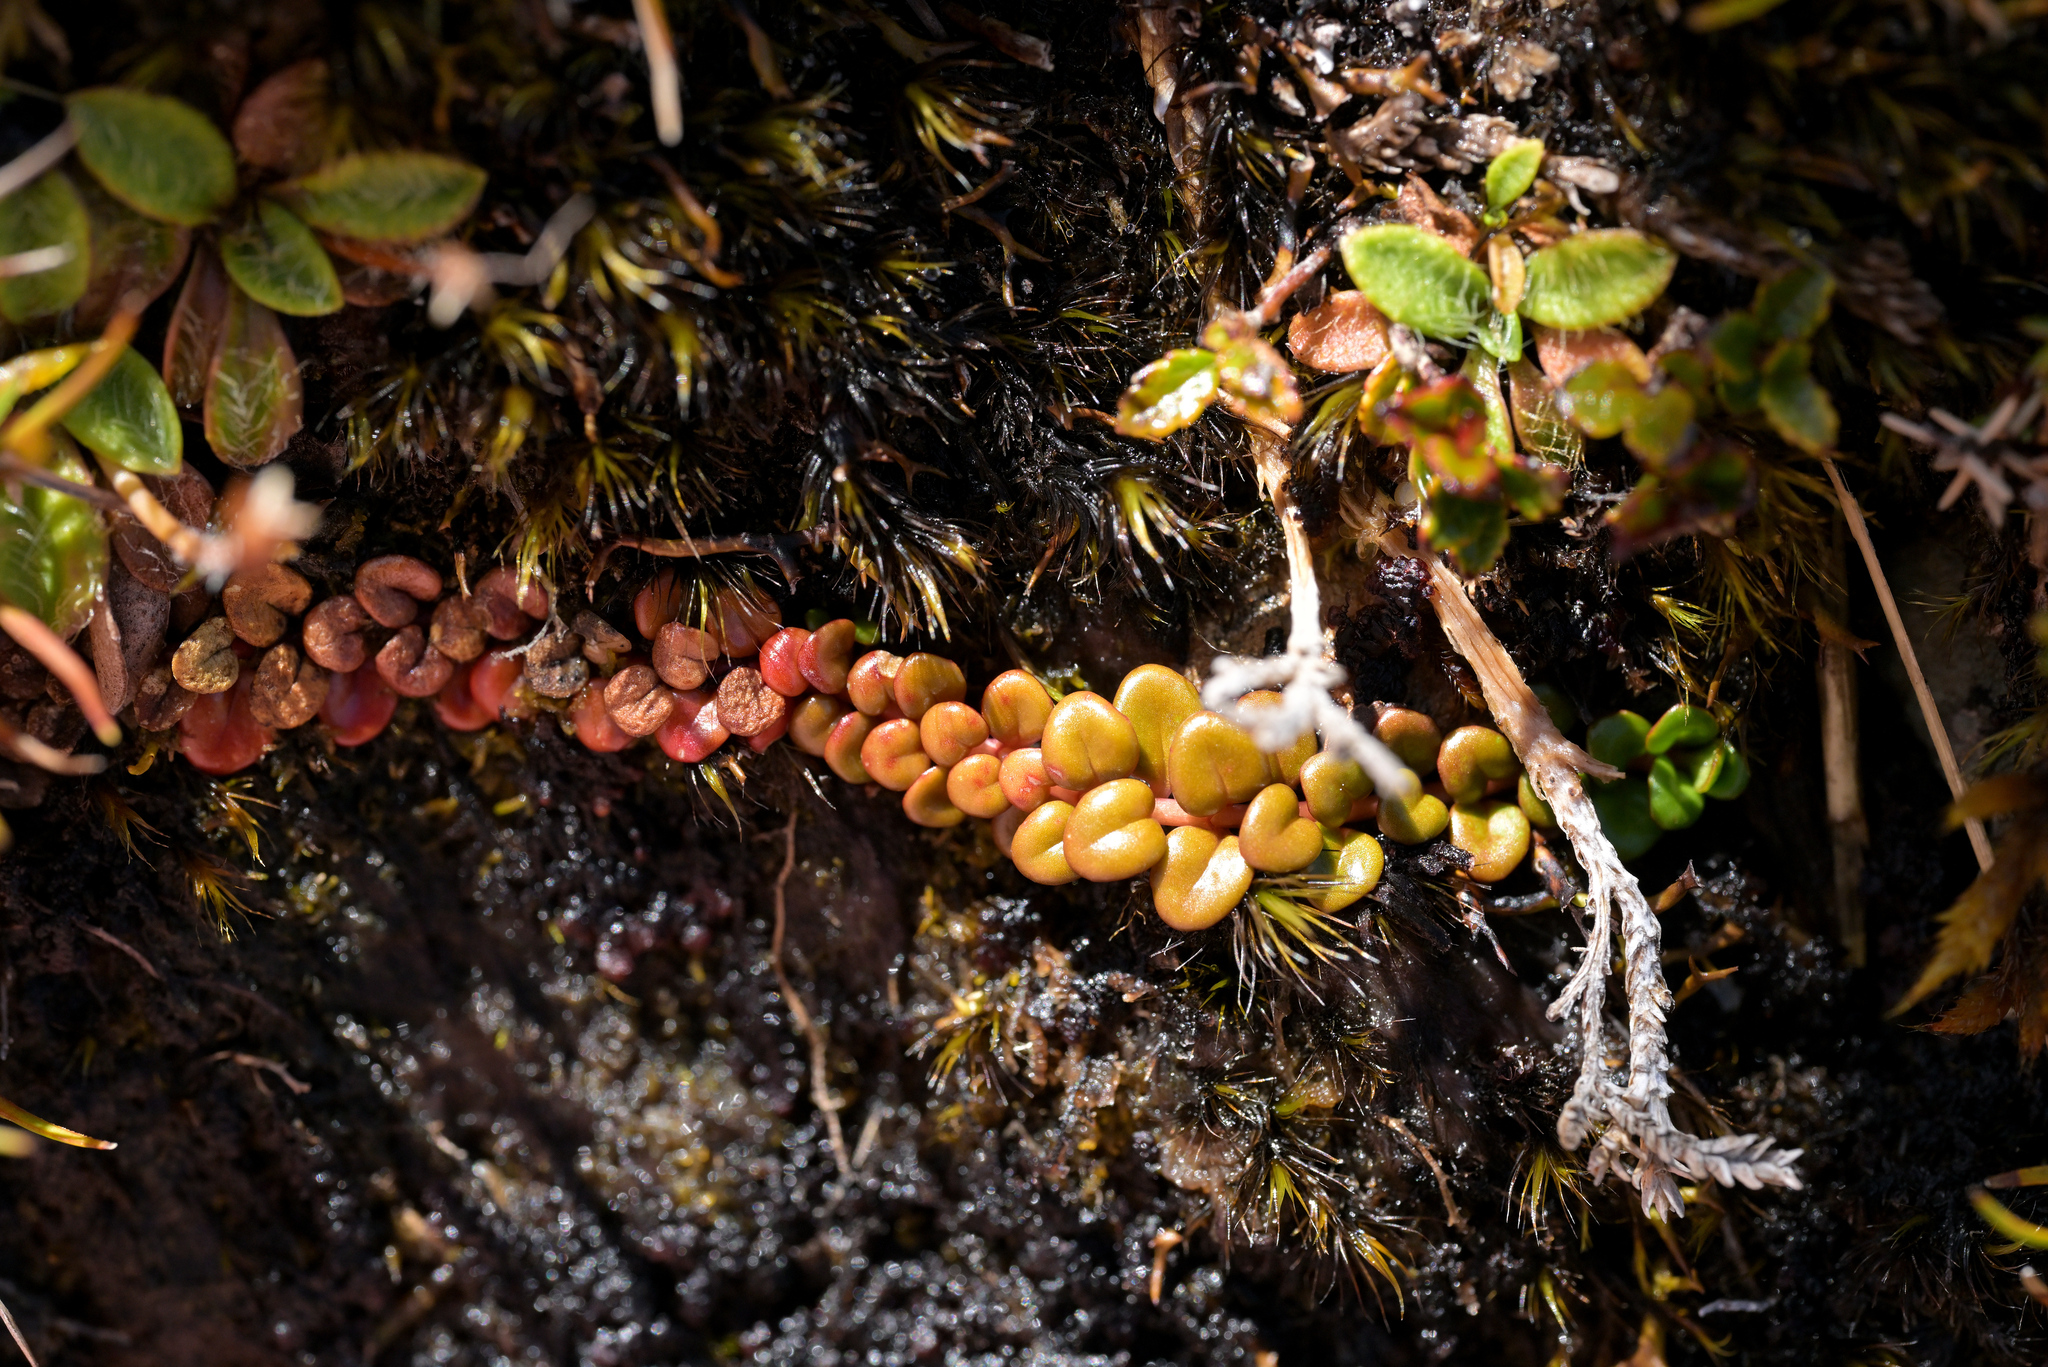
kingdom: Plantae
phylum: Tracheophyta
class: Magnoliopsida
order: Myrtales
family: Onagraceae
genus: Epilobium
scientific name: Epilobium pernitens
